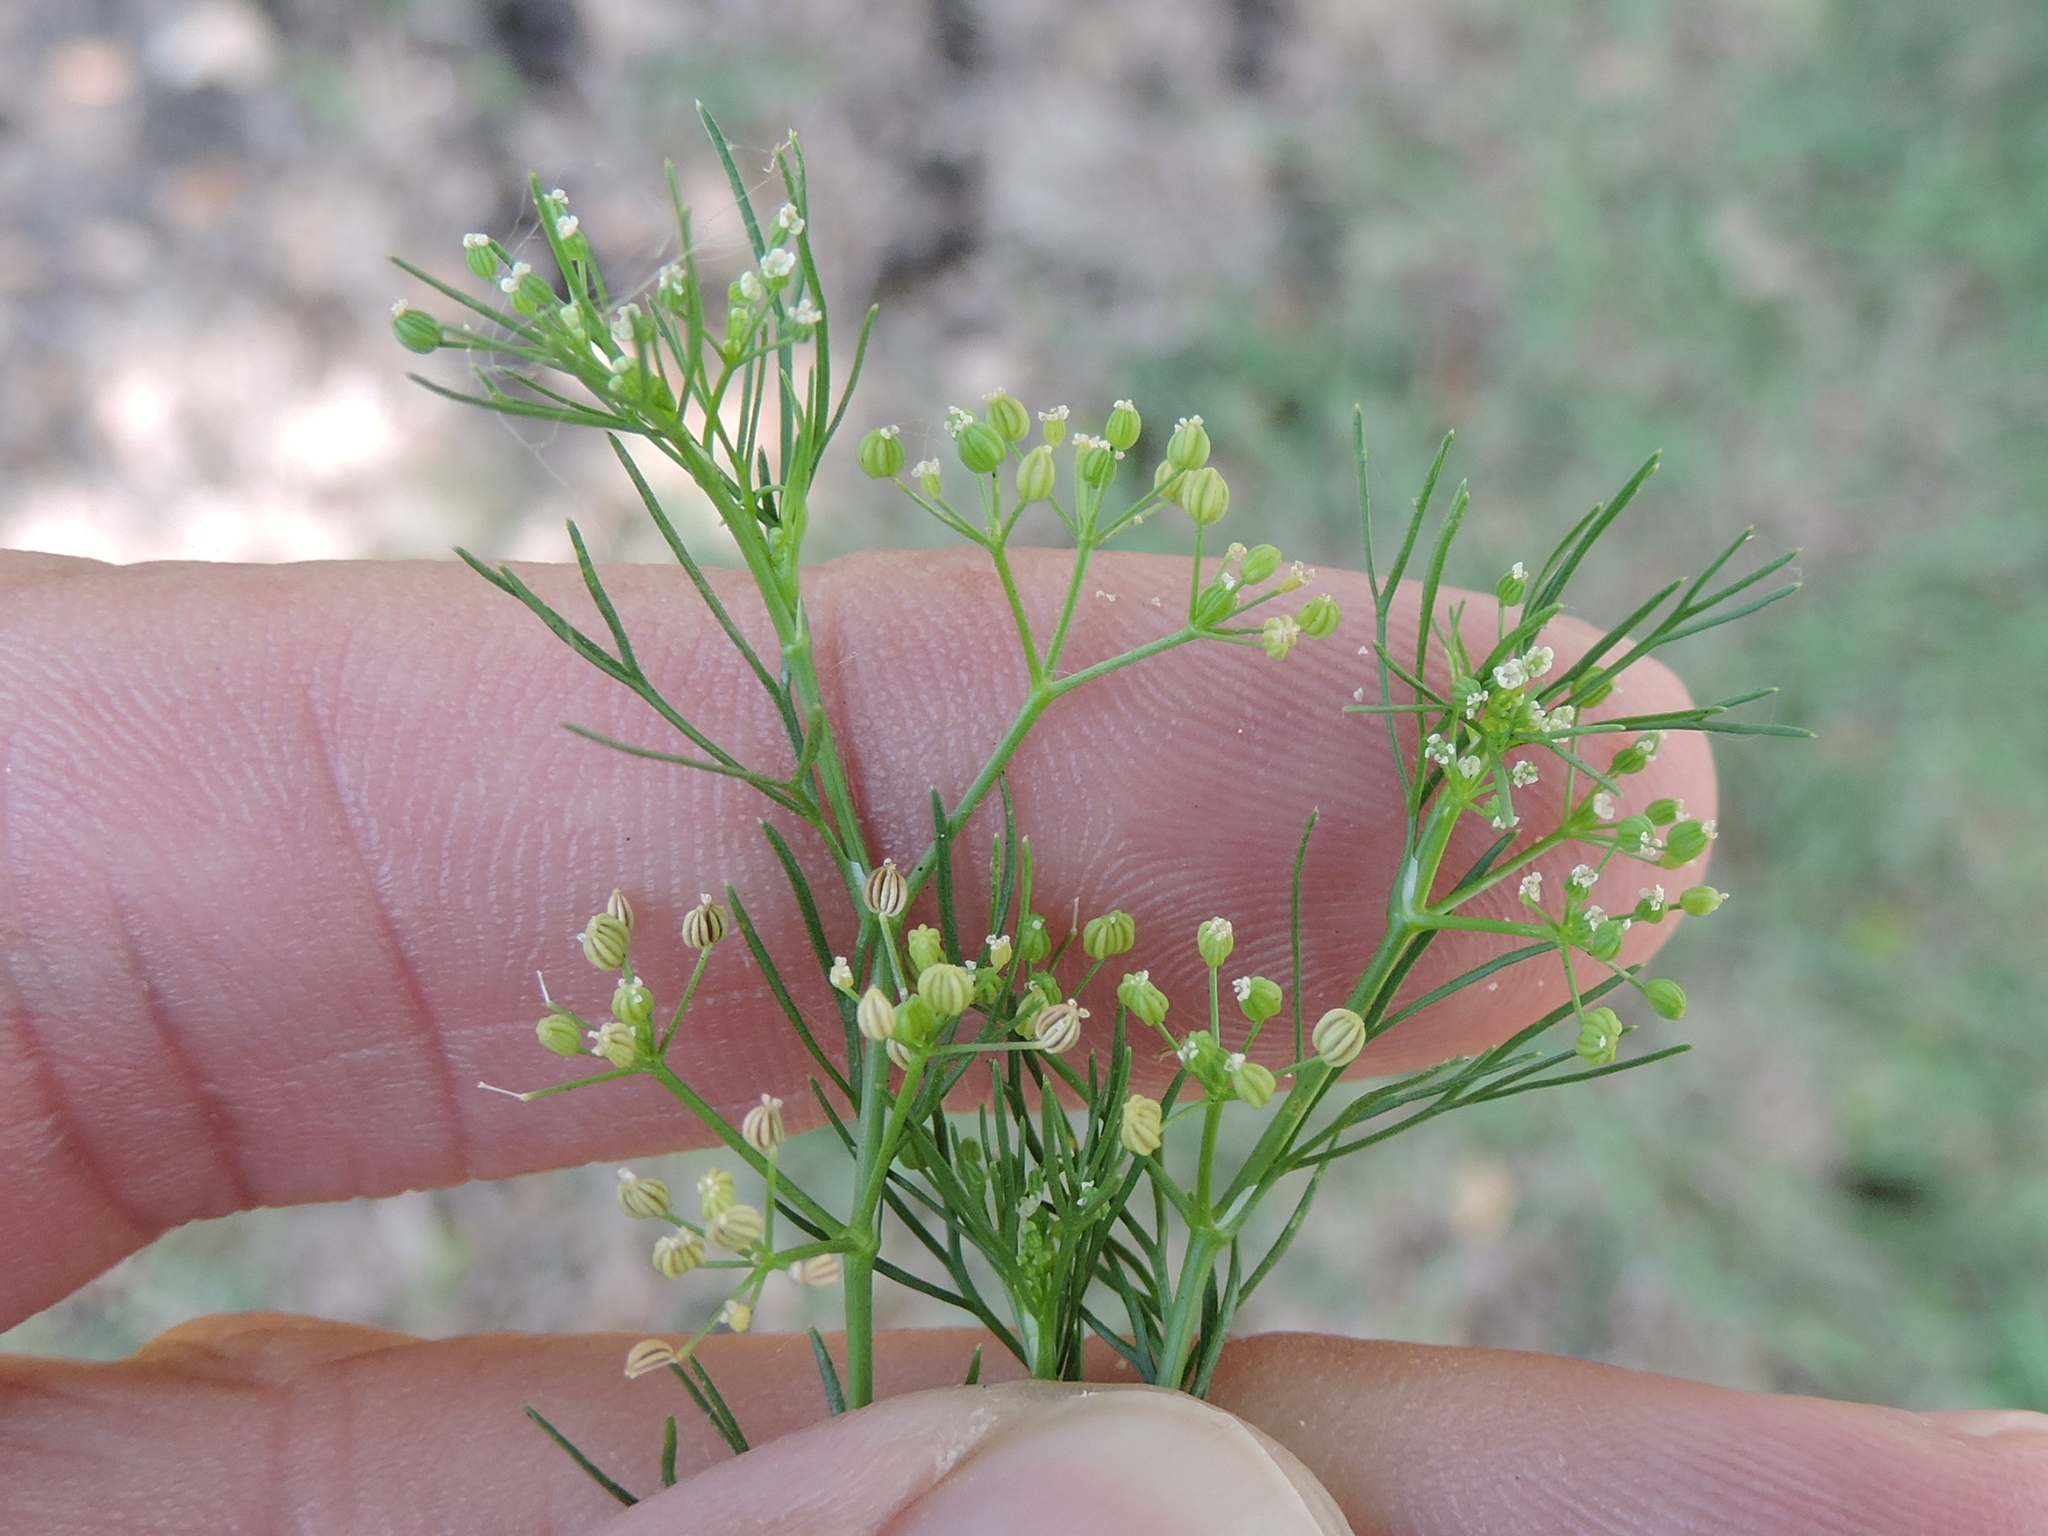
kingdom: Plantae
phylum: Tracheophyta
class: Magnoliopsida
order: Apiales
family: Apiaceae
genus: Cyclospermum
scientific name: Cyclospermum leptophyllum
